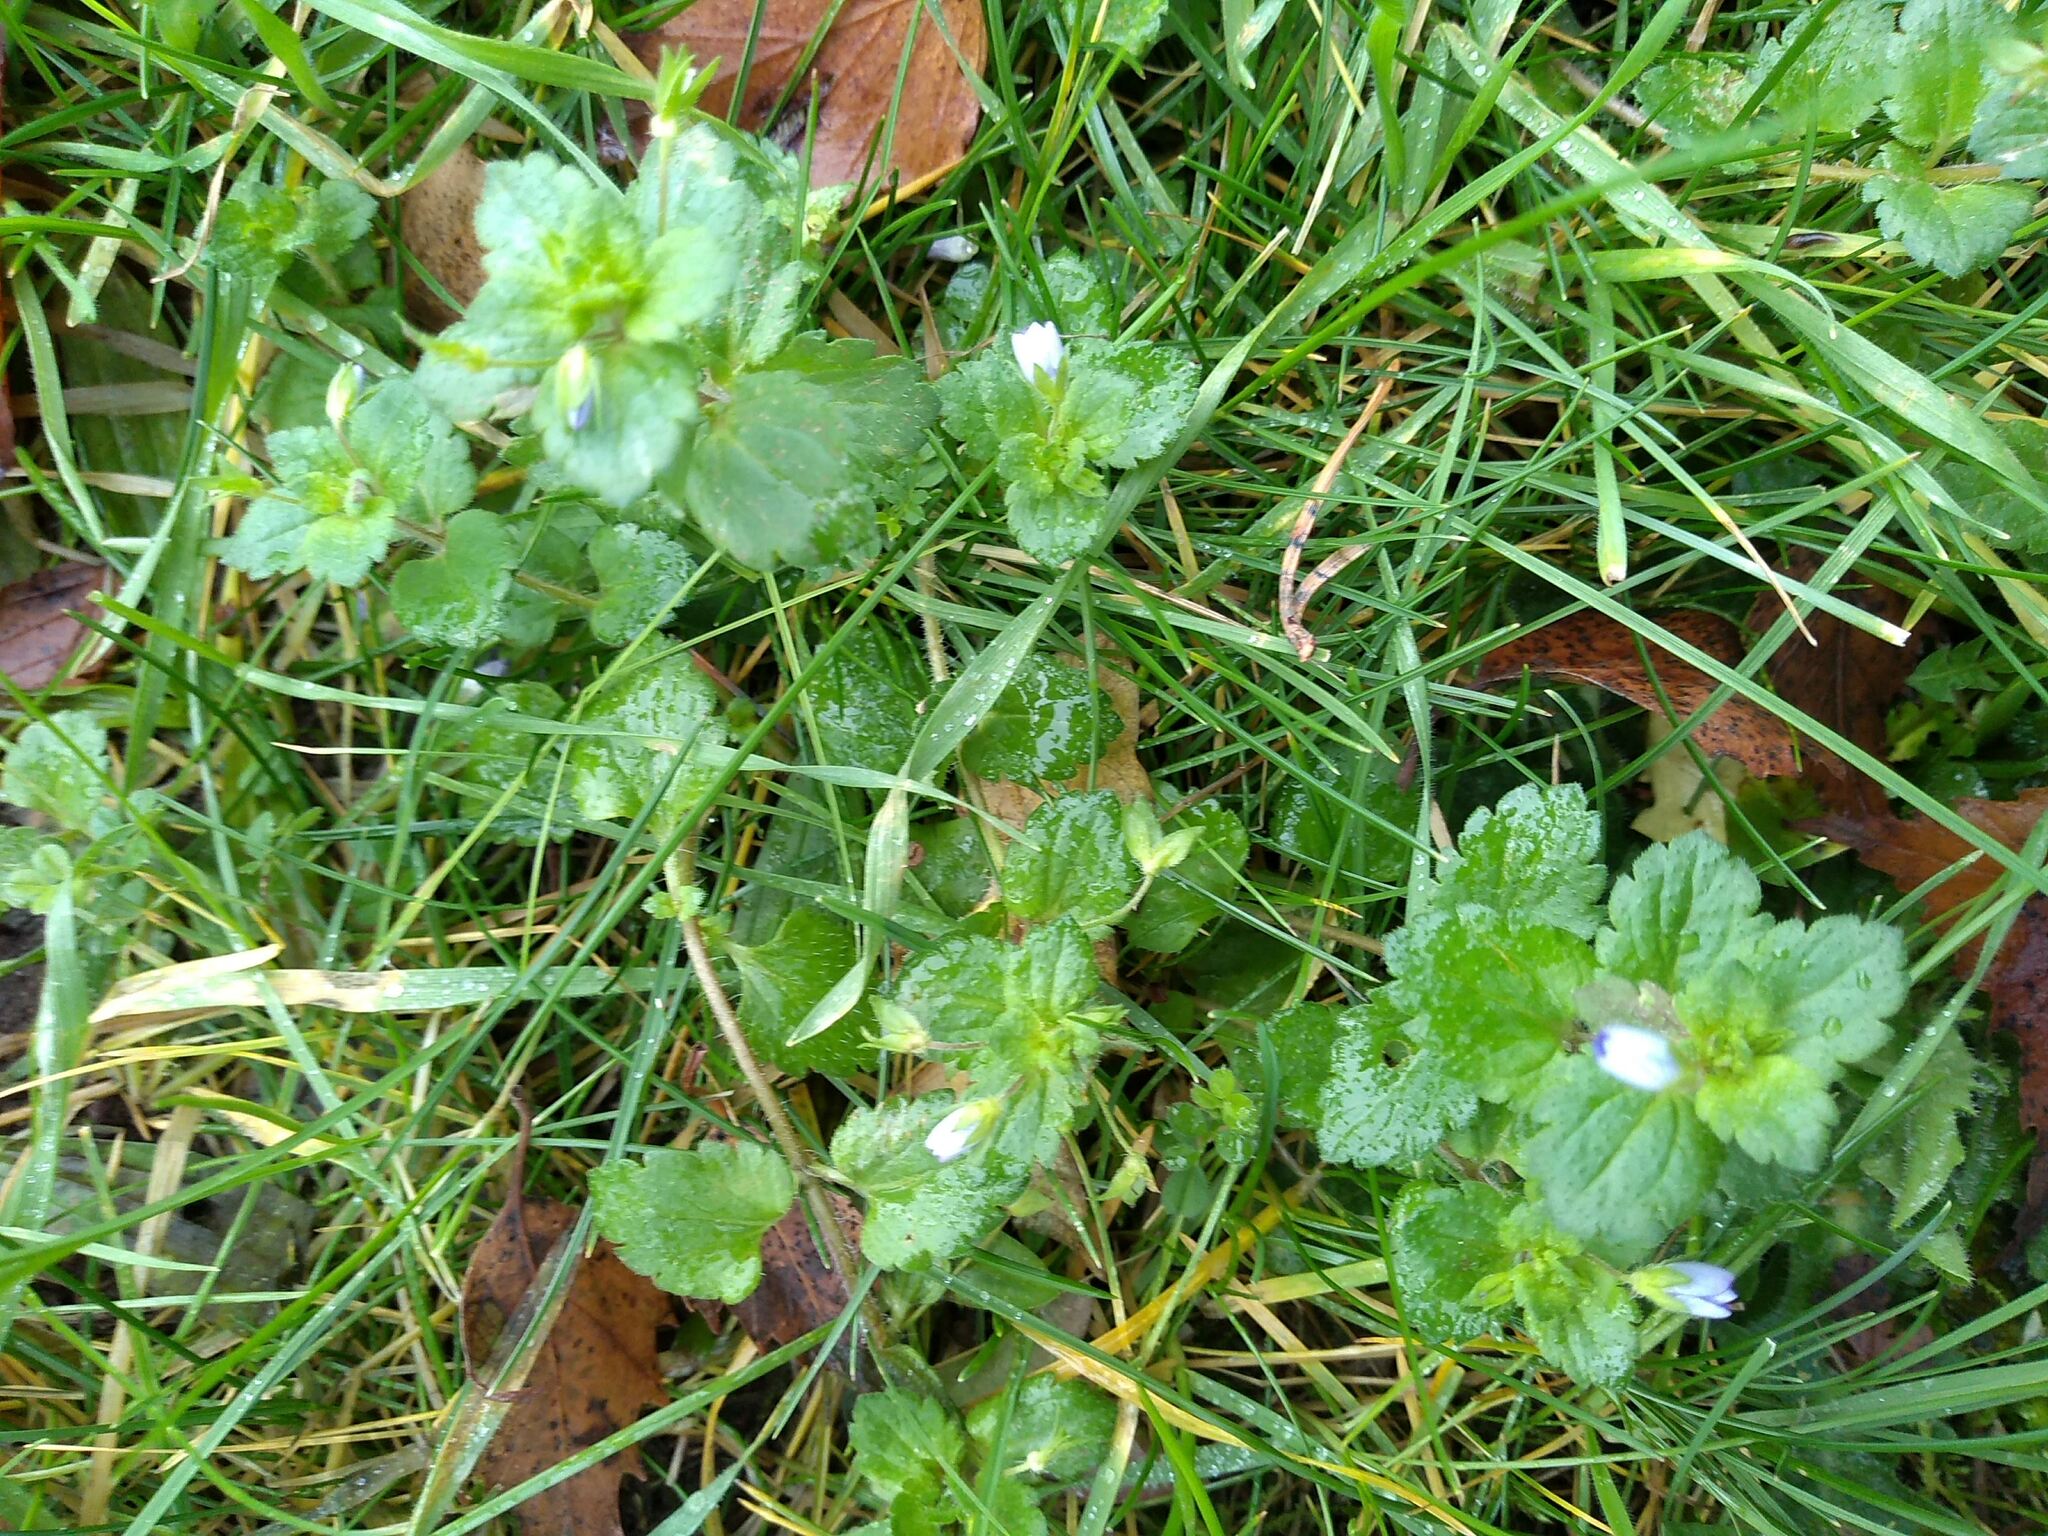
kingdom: Plantae
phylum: Tracheophyta
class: Magnoliopsida
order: Lamiales
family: Plantaginaceae
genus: Veronica
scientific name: Veronica persica
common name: Common field-speedwell
